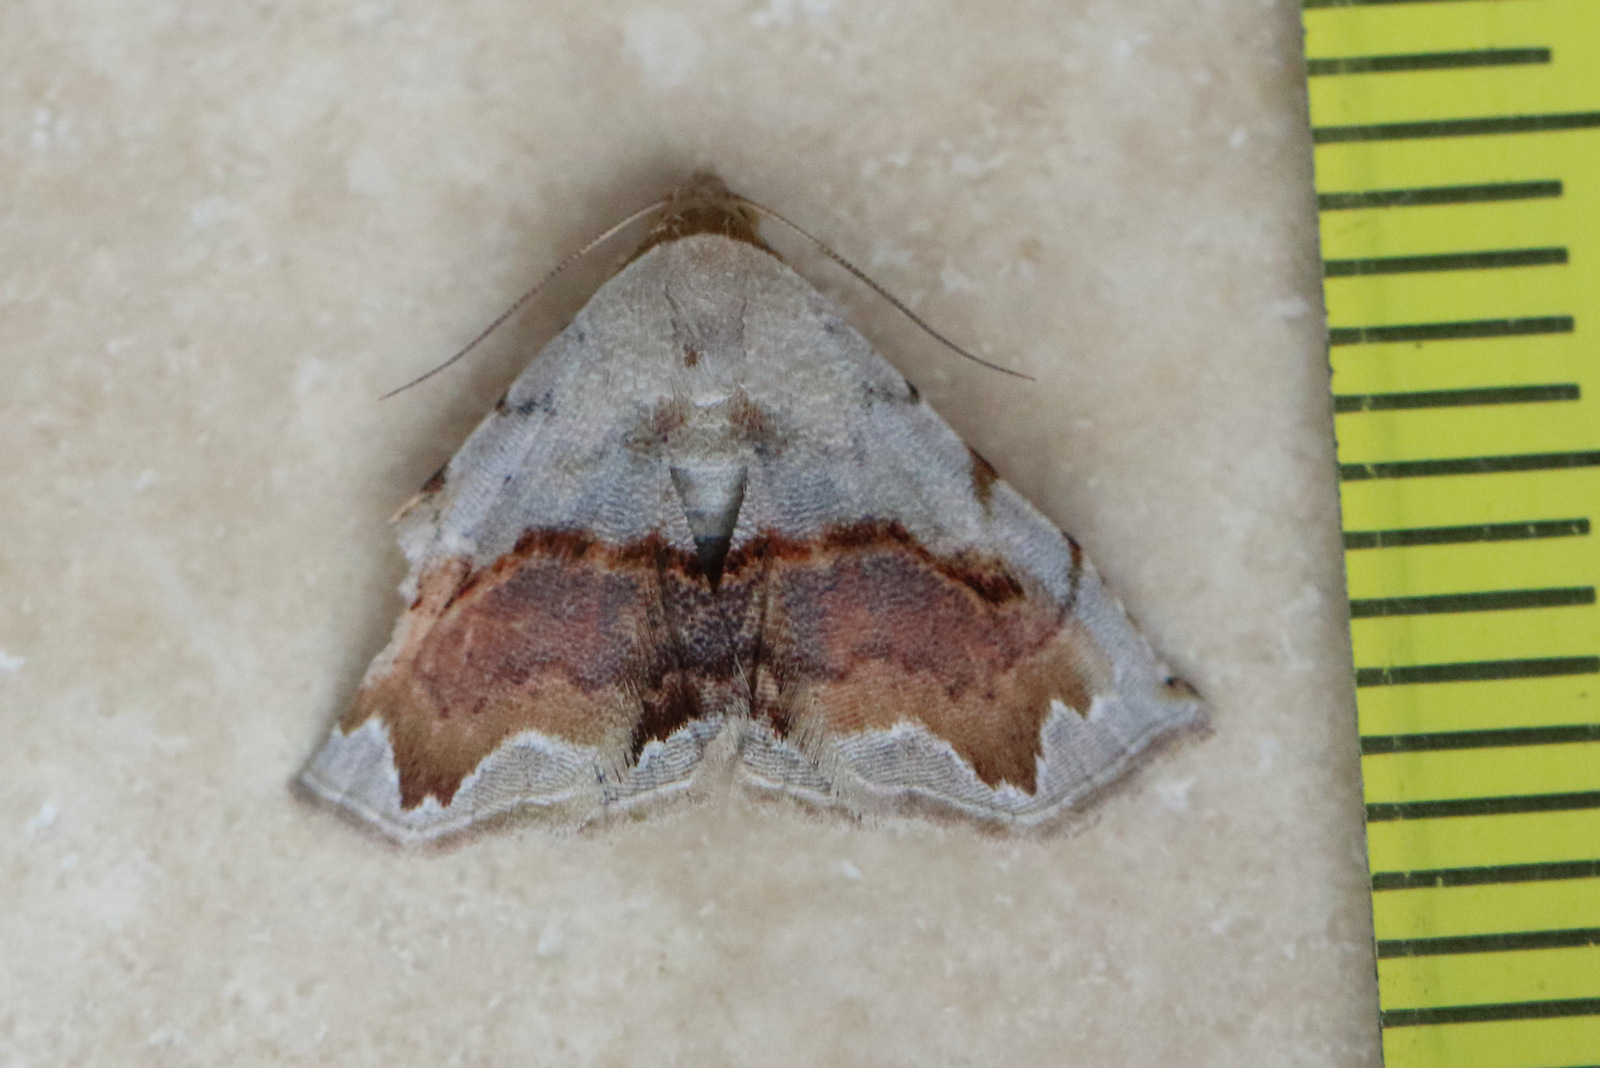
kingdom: Animalia
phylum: Arthropoda
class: Insecta
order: Lepidoptera
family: Noctuidae
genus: Eublemma
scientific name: Eublemma
